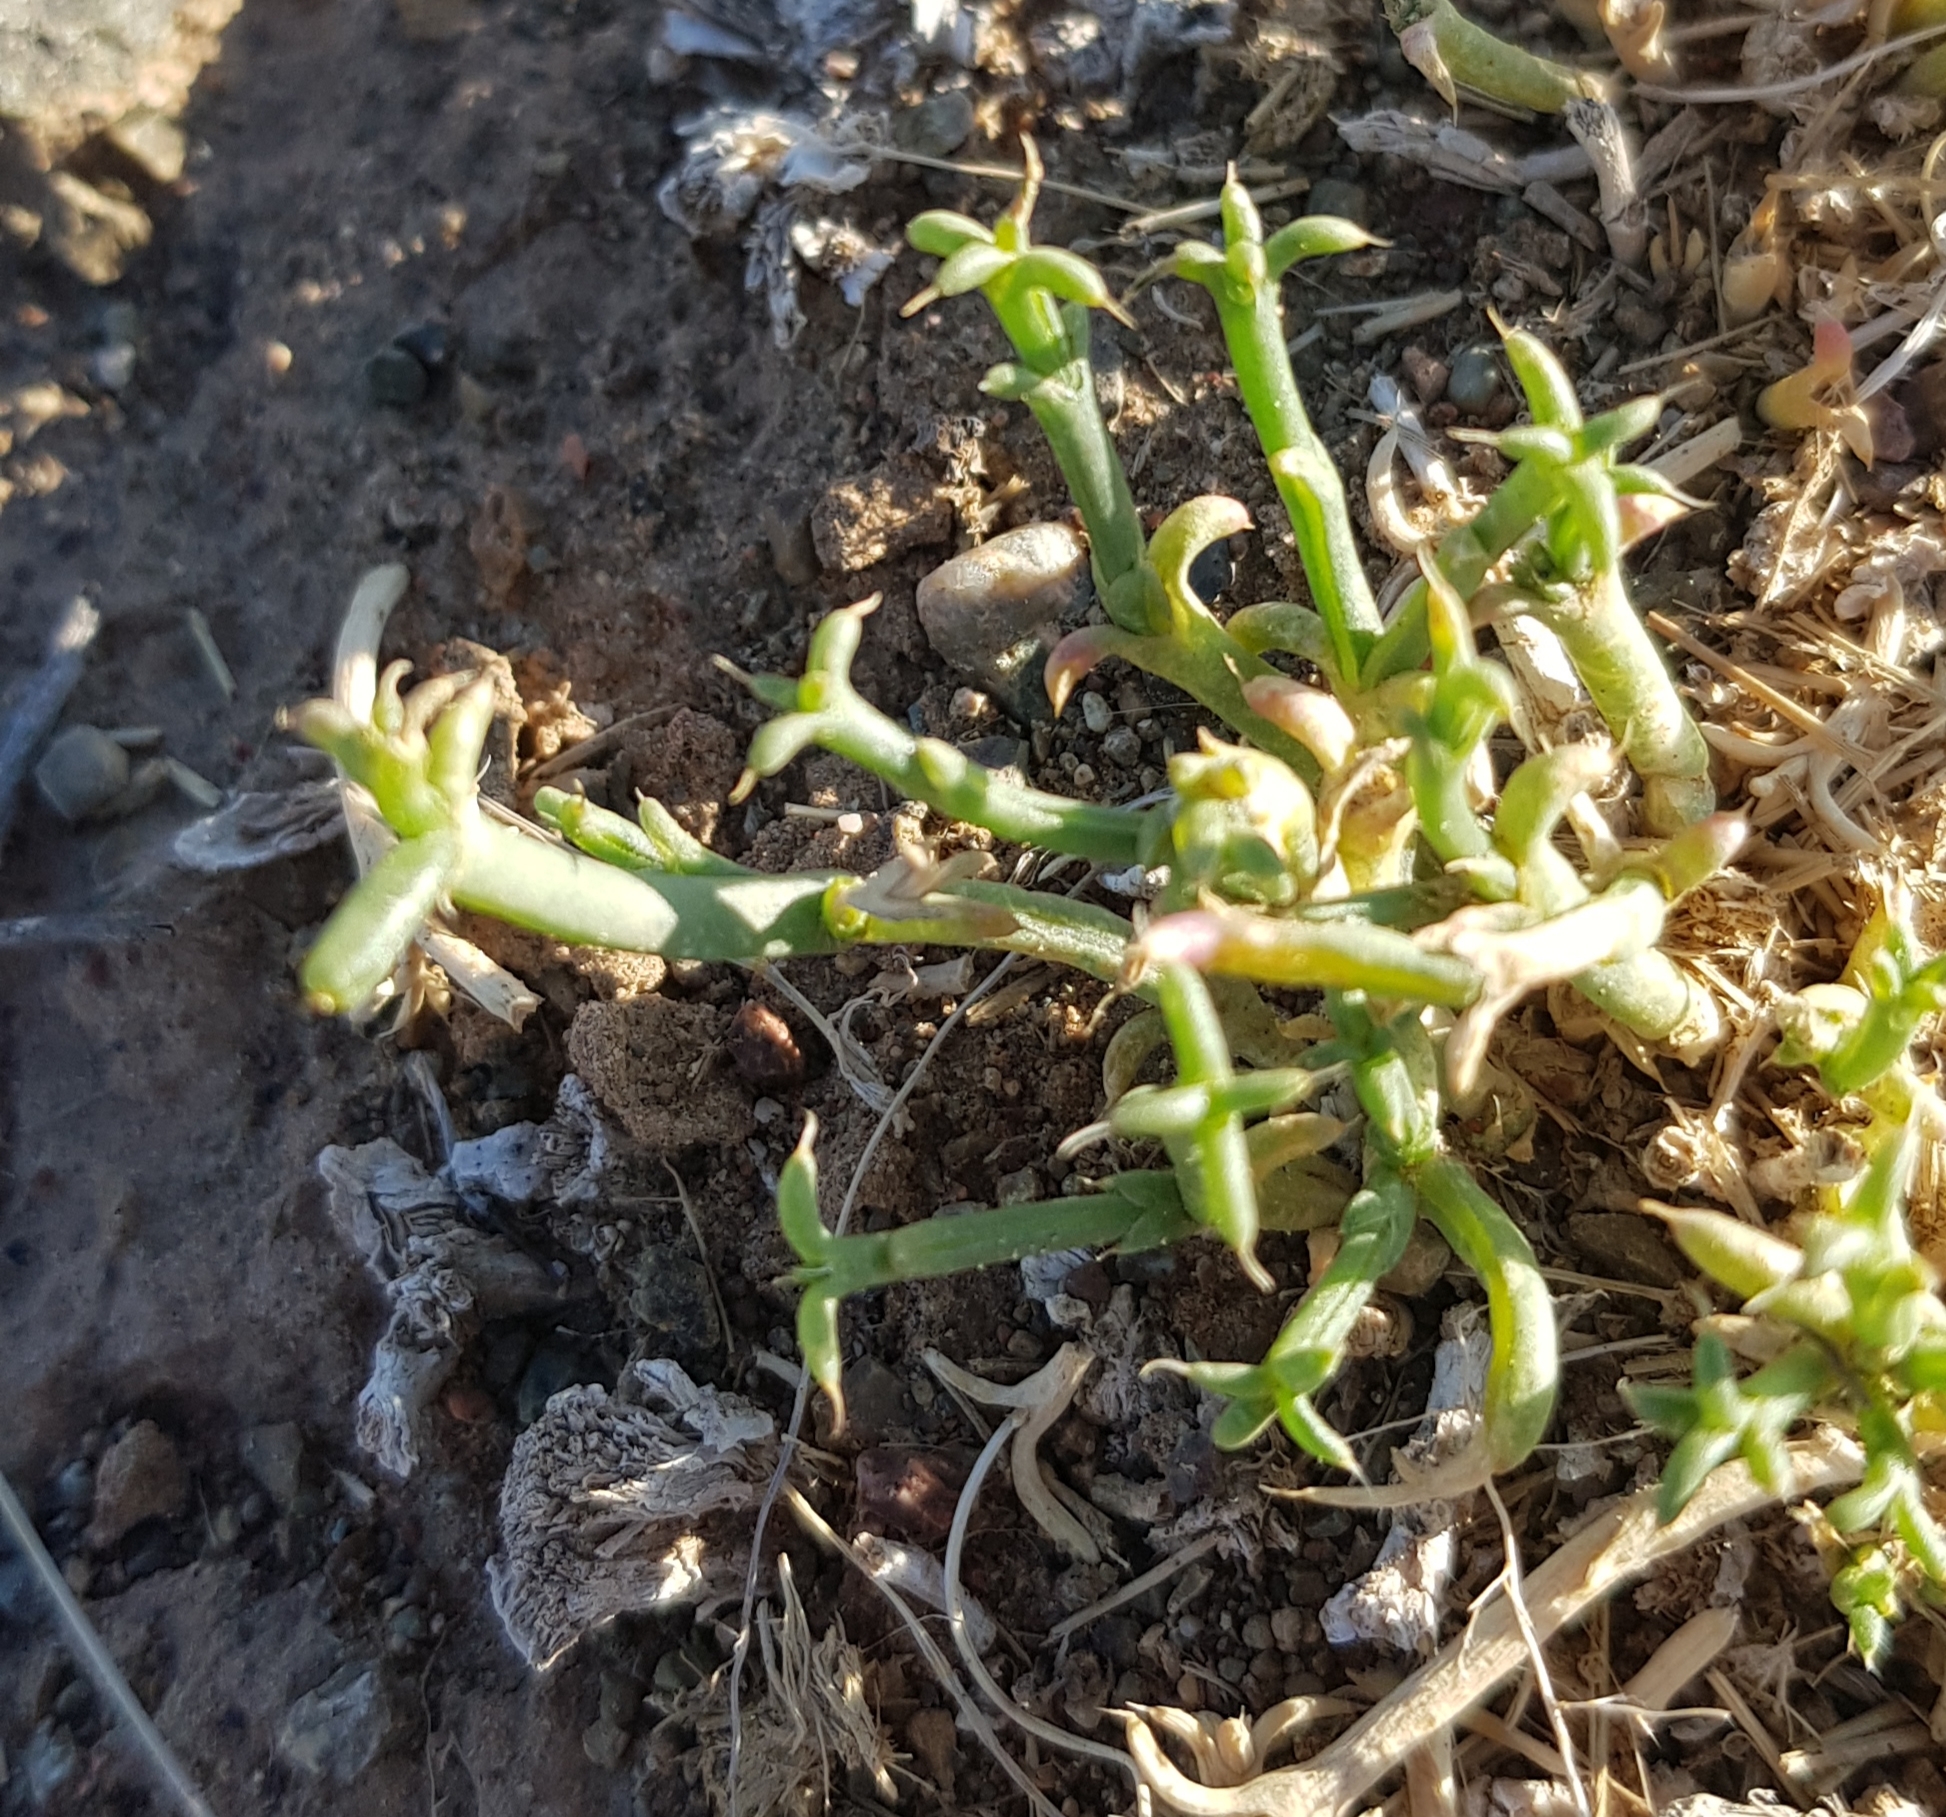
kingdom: Plantae
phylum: Tracheophyta
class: Magnoliopsida
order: Caryophyllales
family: Amaranthaceae
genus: Anabasis
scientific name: Anabasis brevifolia
